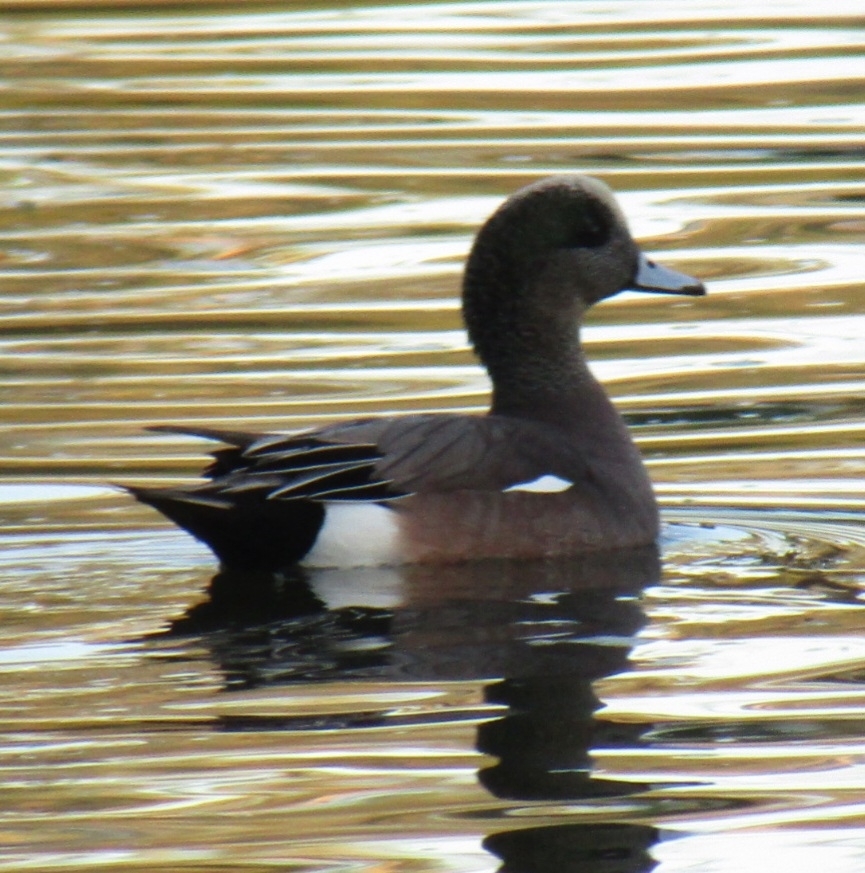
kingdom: Animalia
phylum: Chordata
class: Aves
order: Anseriformes
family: Anatidae
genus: Mareca
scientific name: Mareca americana
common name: American wigeon
